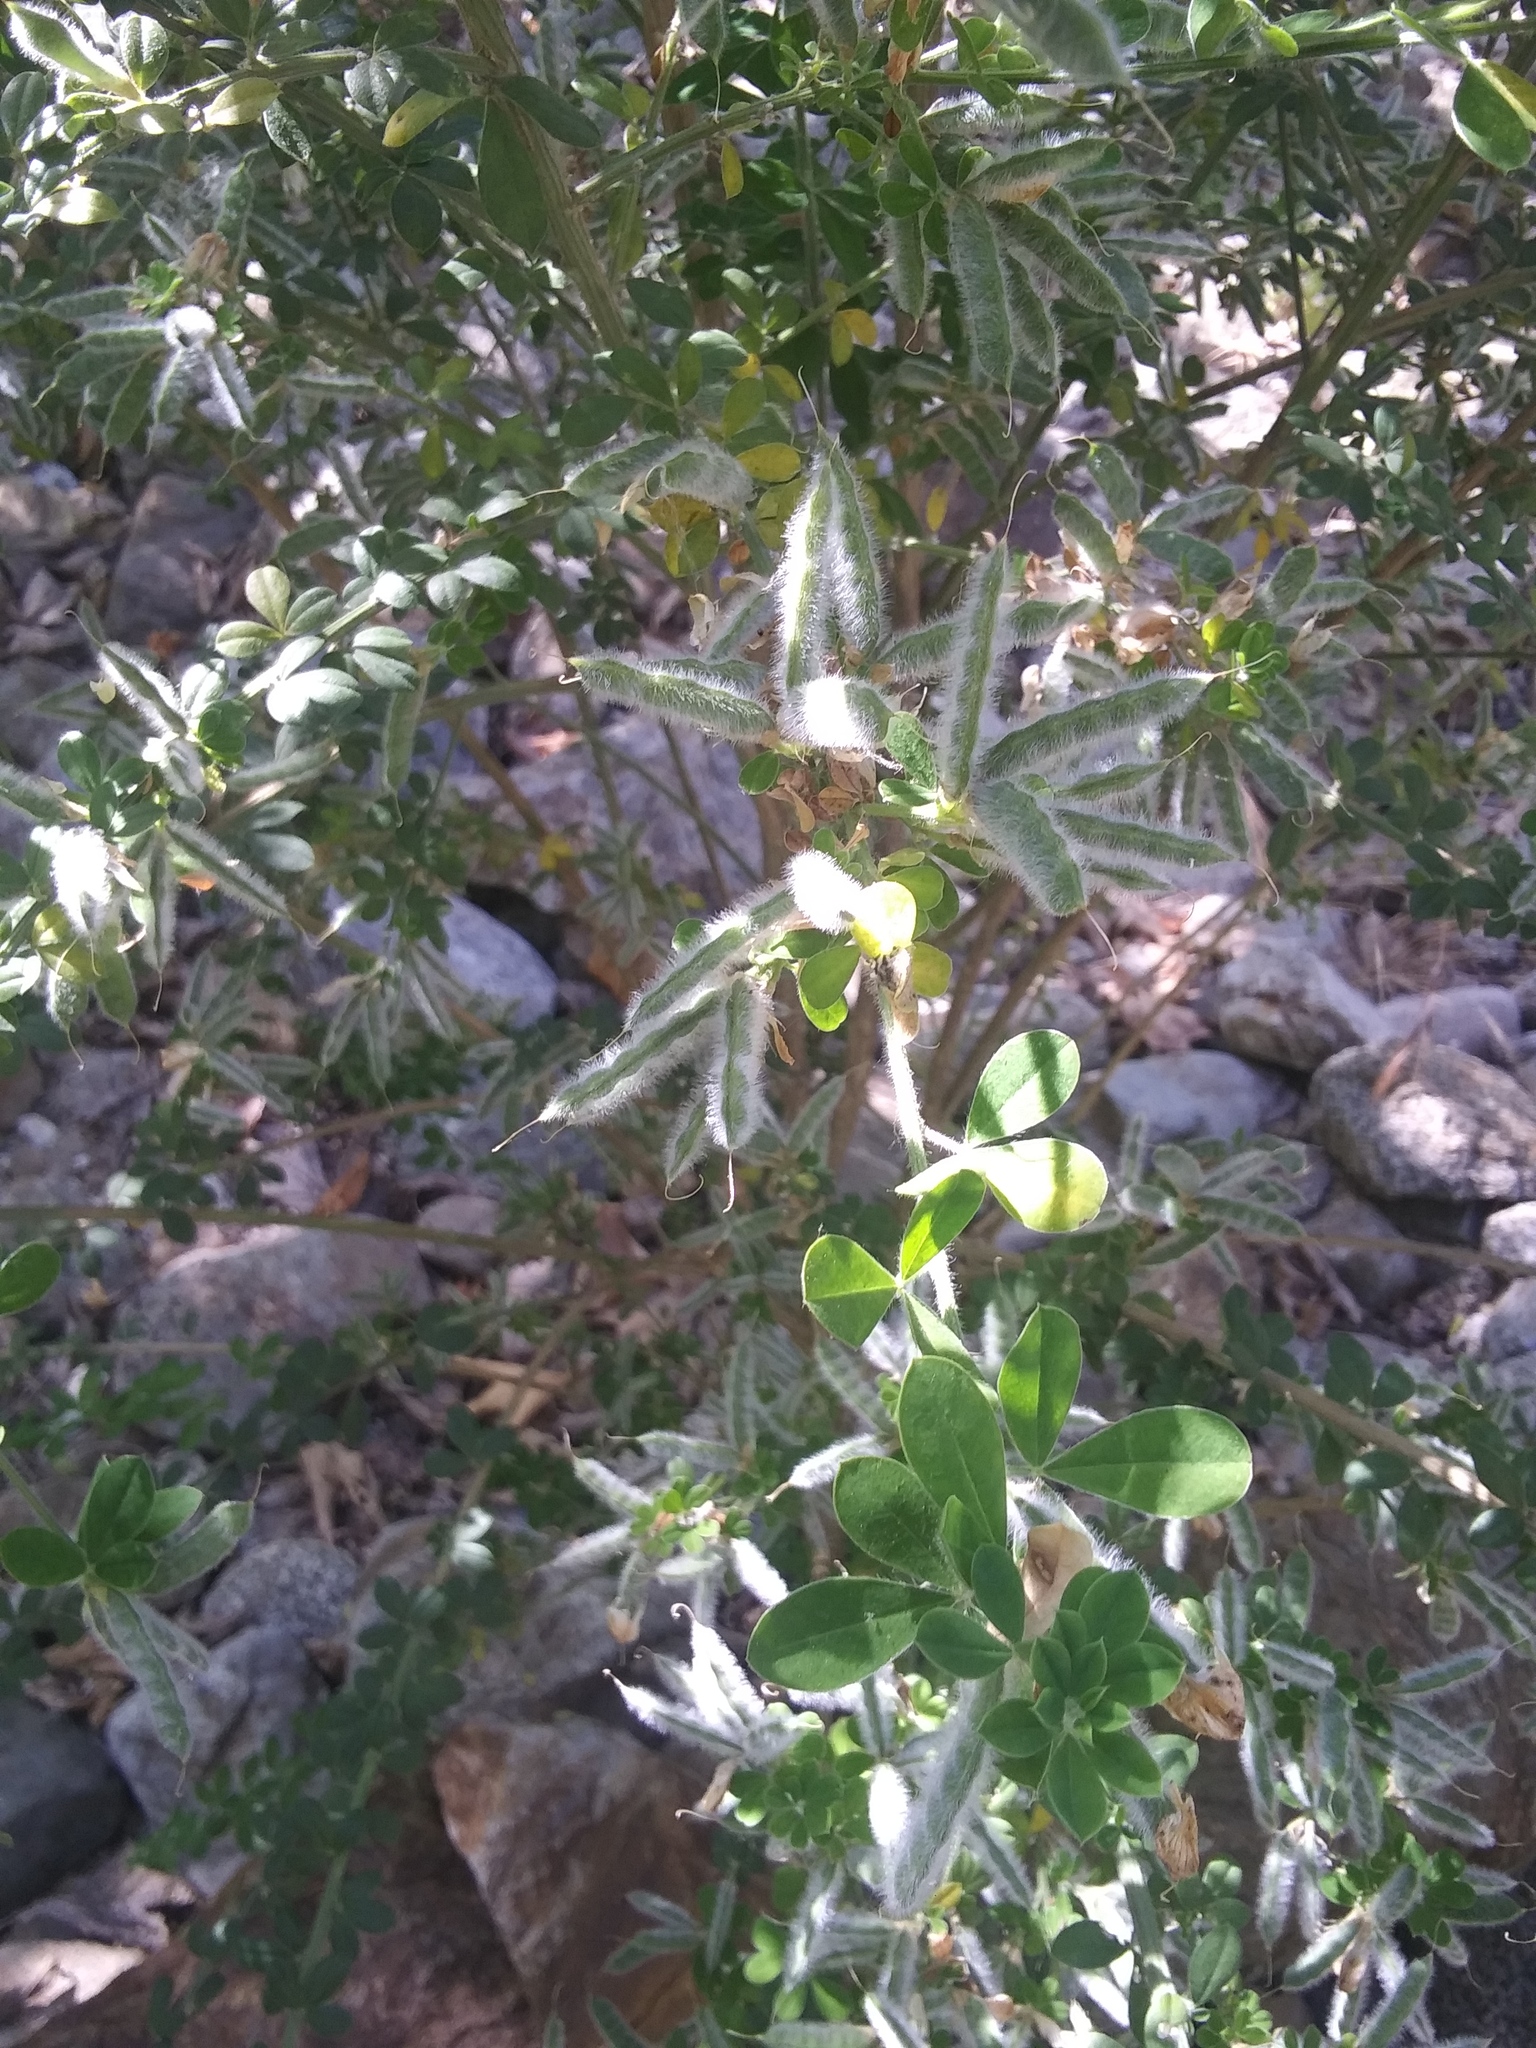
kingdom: Plantae
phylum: Tracheophyta
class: Magnoliopsida
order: Fabales
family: Fabaceae
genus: Genista
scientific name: Genista monspessulana
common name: Montpellier broom
